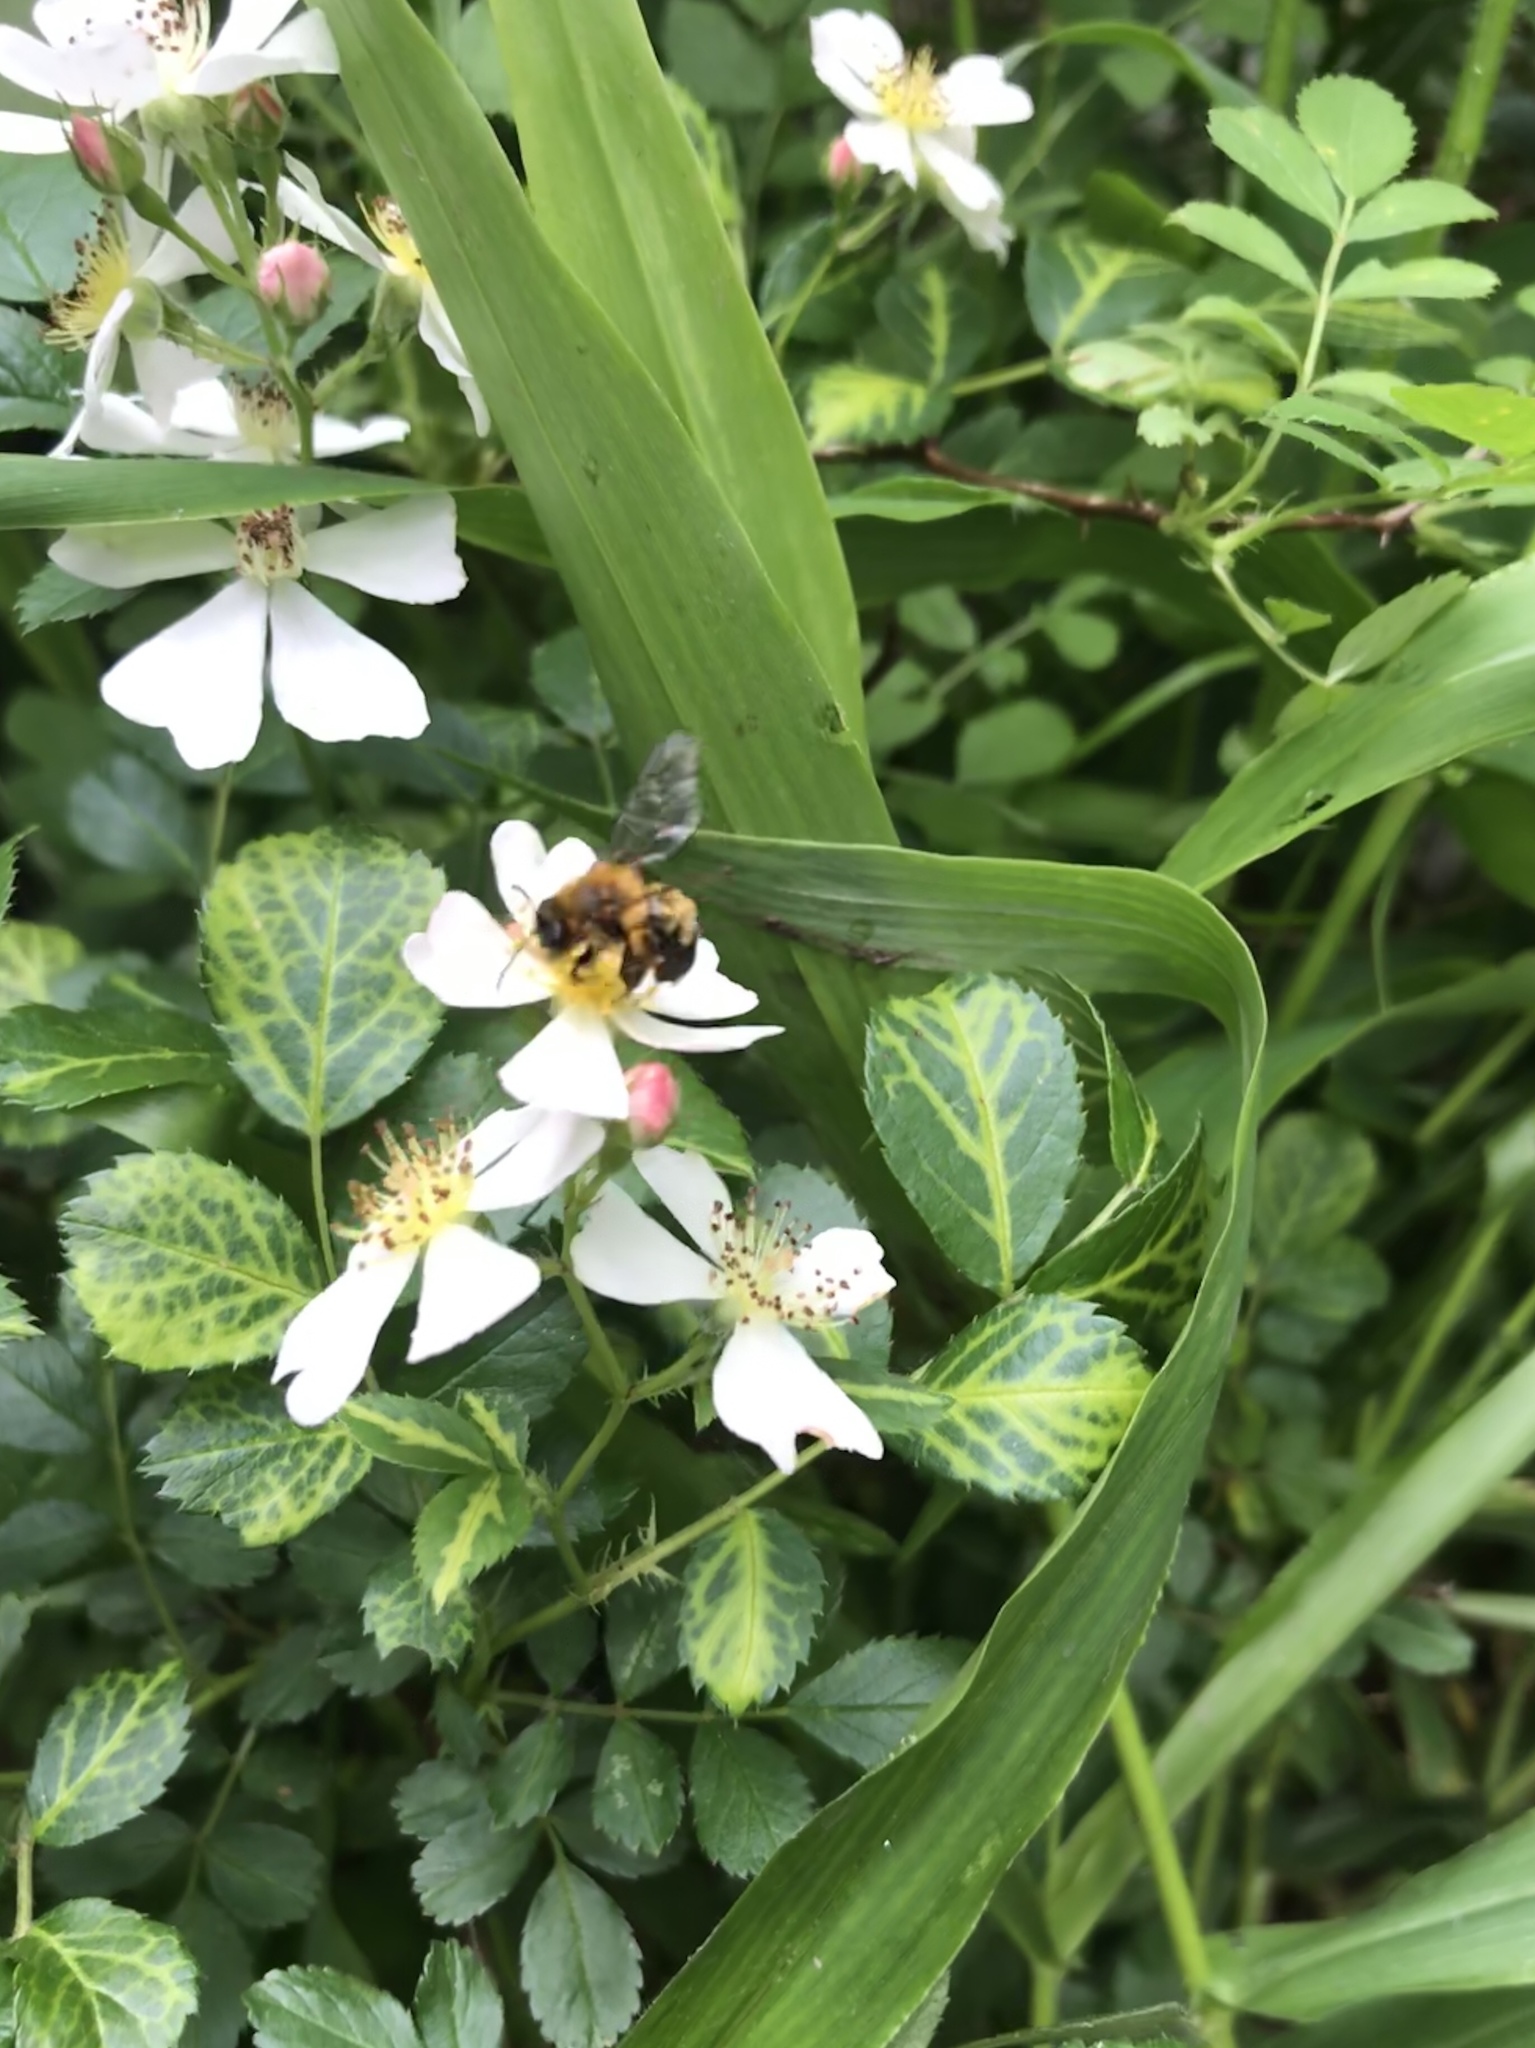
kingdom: Animalia
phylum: Arthropoda
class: Insecta
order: Hymenoptera
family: Andrenidae
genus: Andrena
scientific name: Andrena milwaukeensis
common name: Milwaukee mining bee
